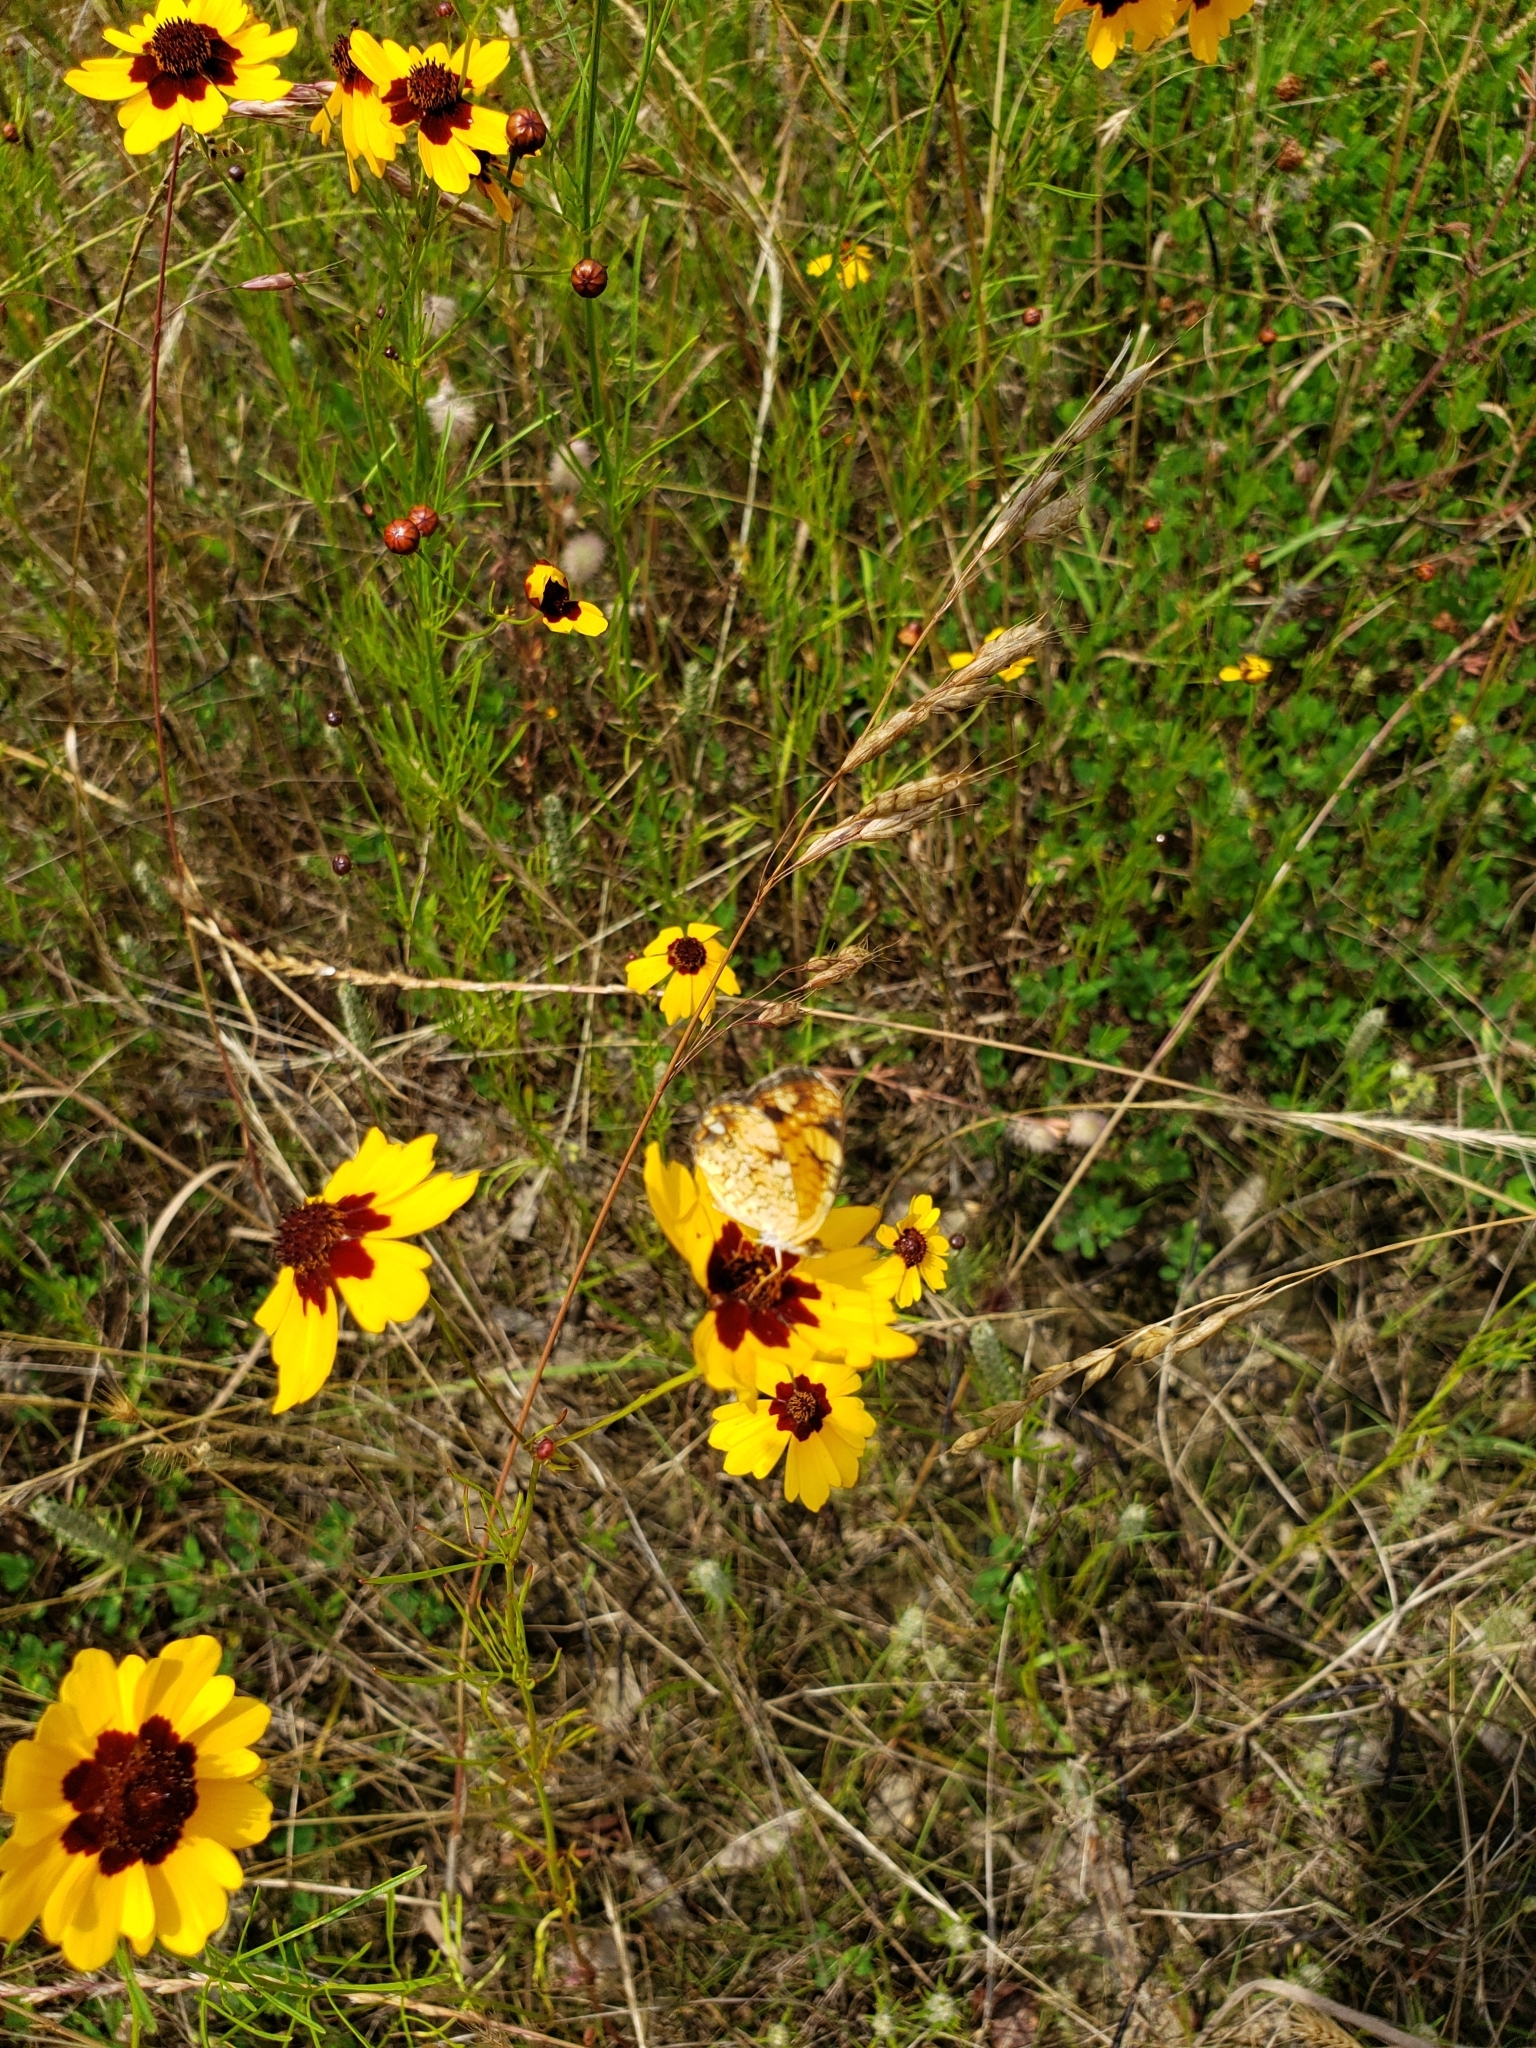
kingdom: Animalia
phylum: Arthropoda
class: Insecta
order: Lepidoptera
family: Nymphalidae
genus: Phyciodes
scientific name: Phyciodes tharos
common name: Pearl crescent
